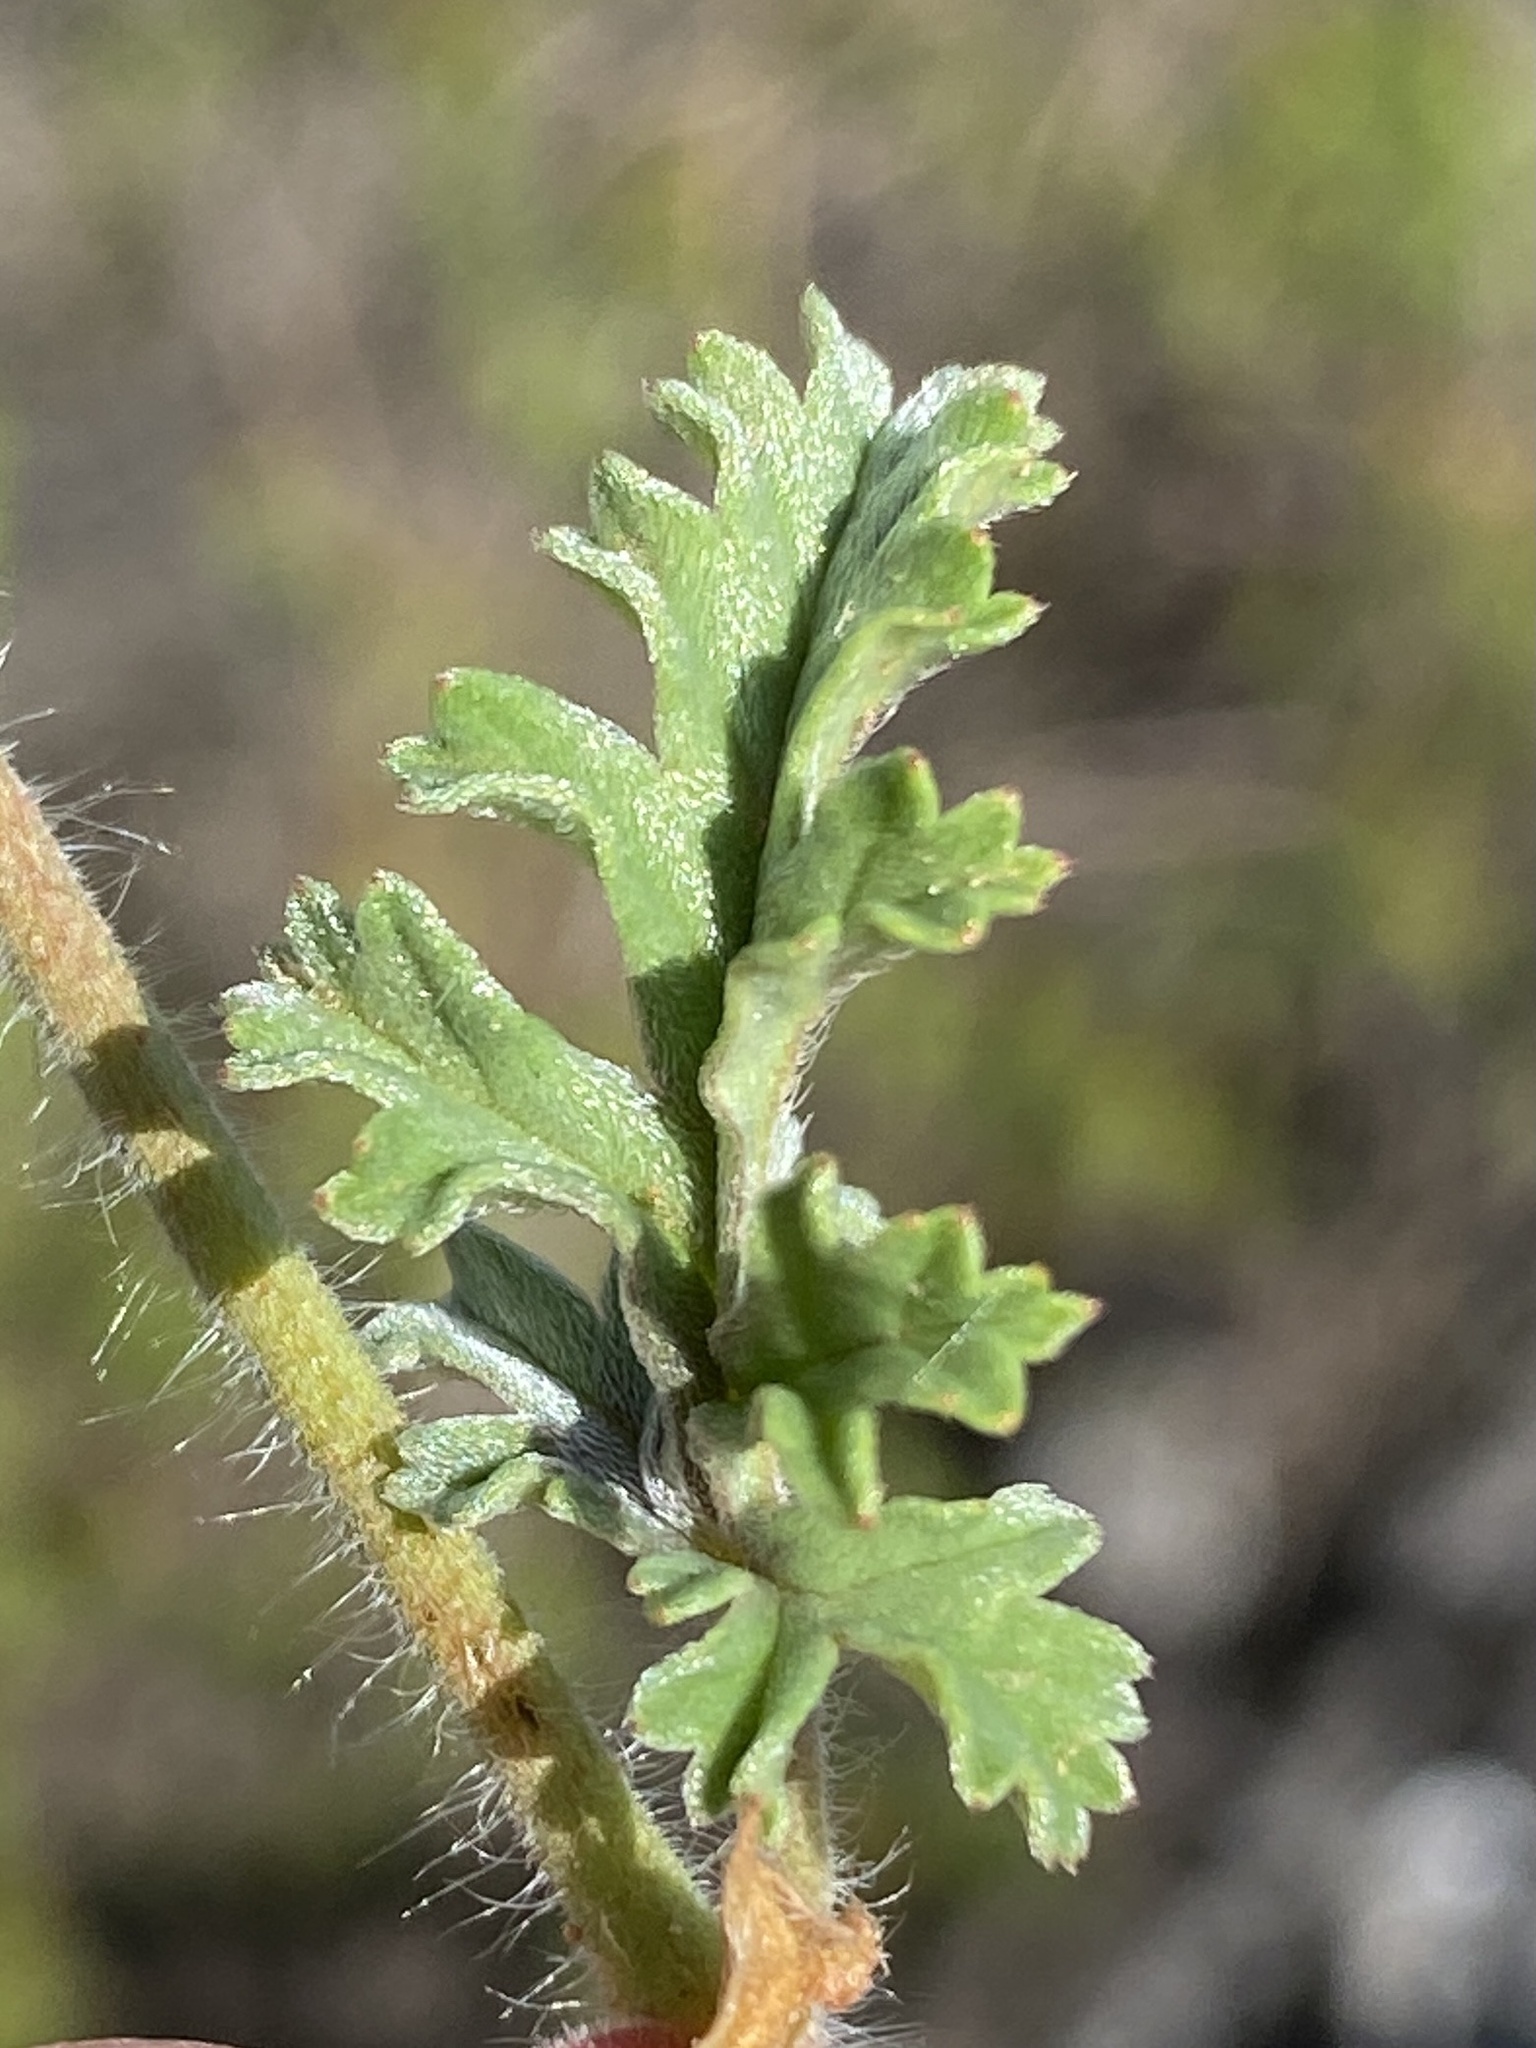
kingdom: Plantae
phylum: Tracheophyta
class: Magnoliopsida
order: Geraniales
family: Geraniaceae
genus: Pelargonium
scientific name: Pelargonium candicans
